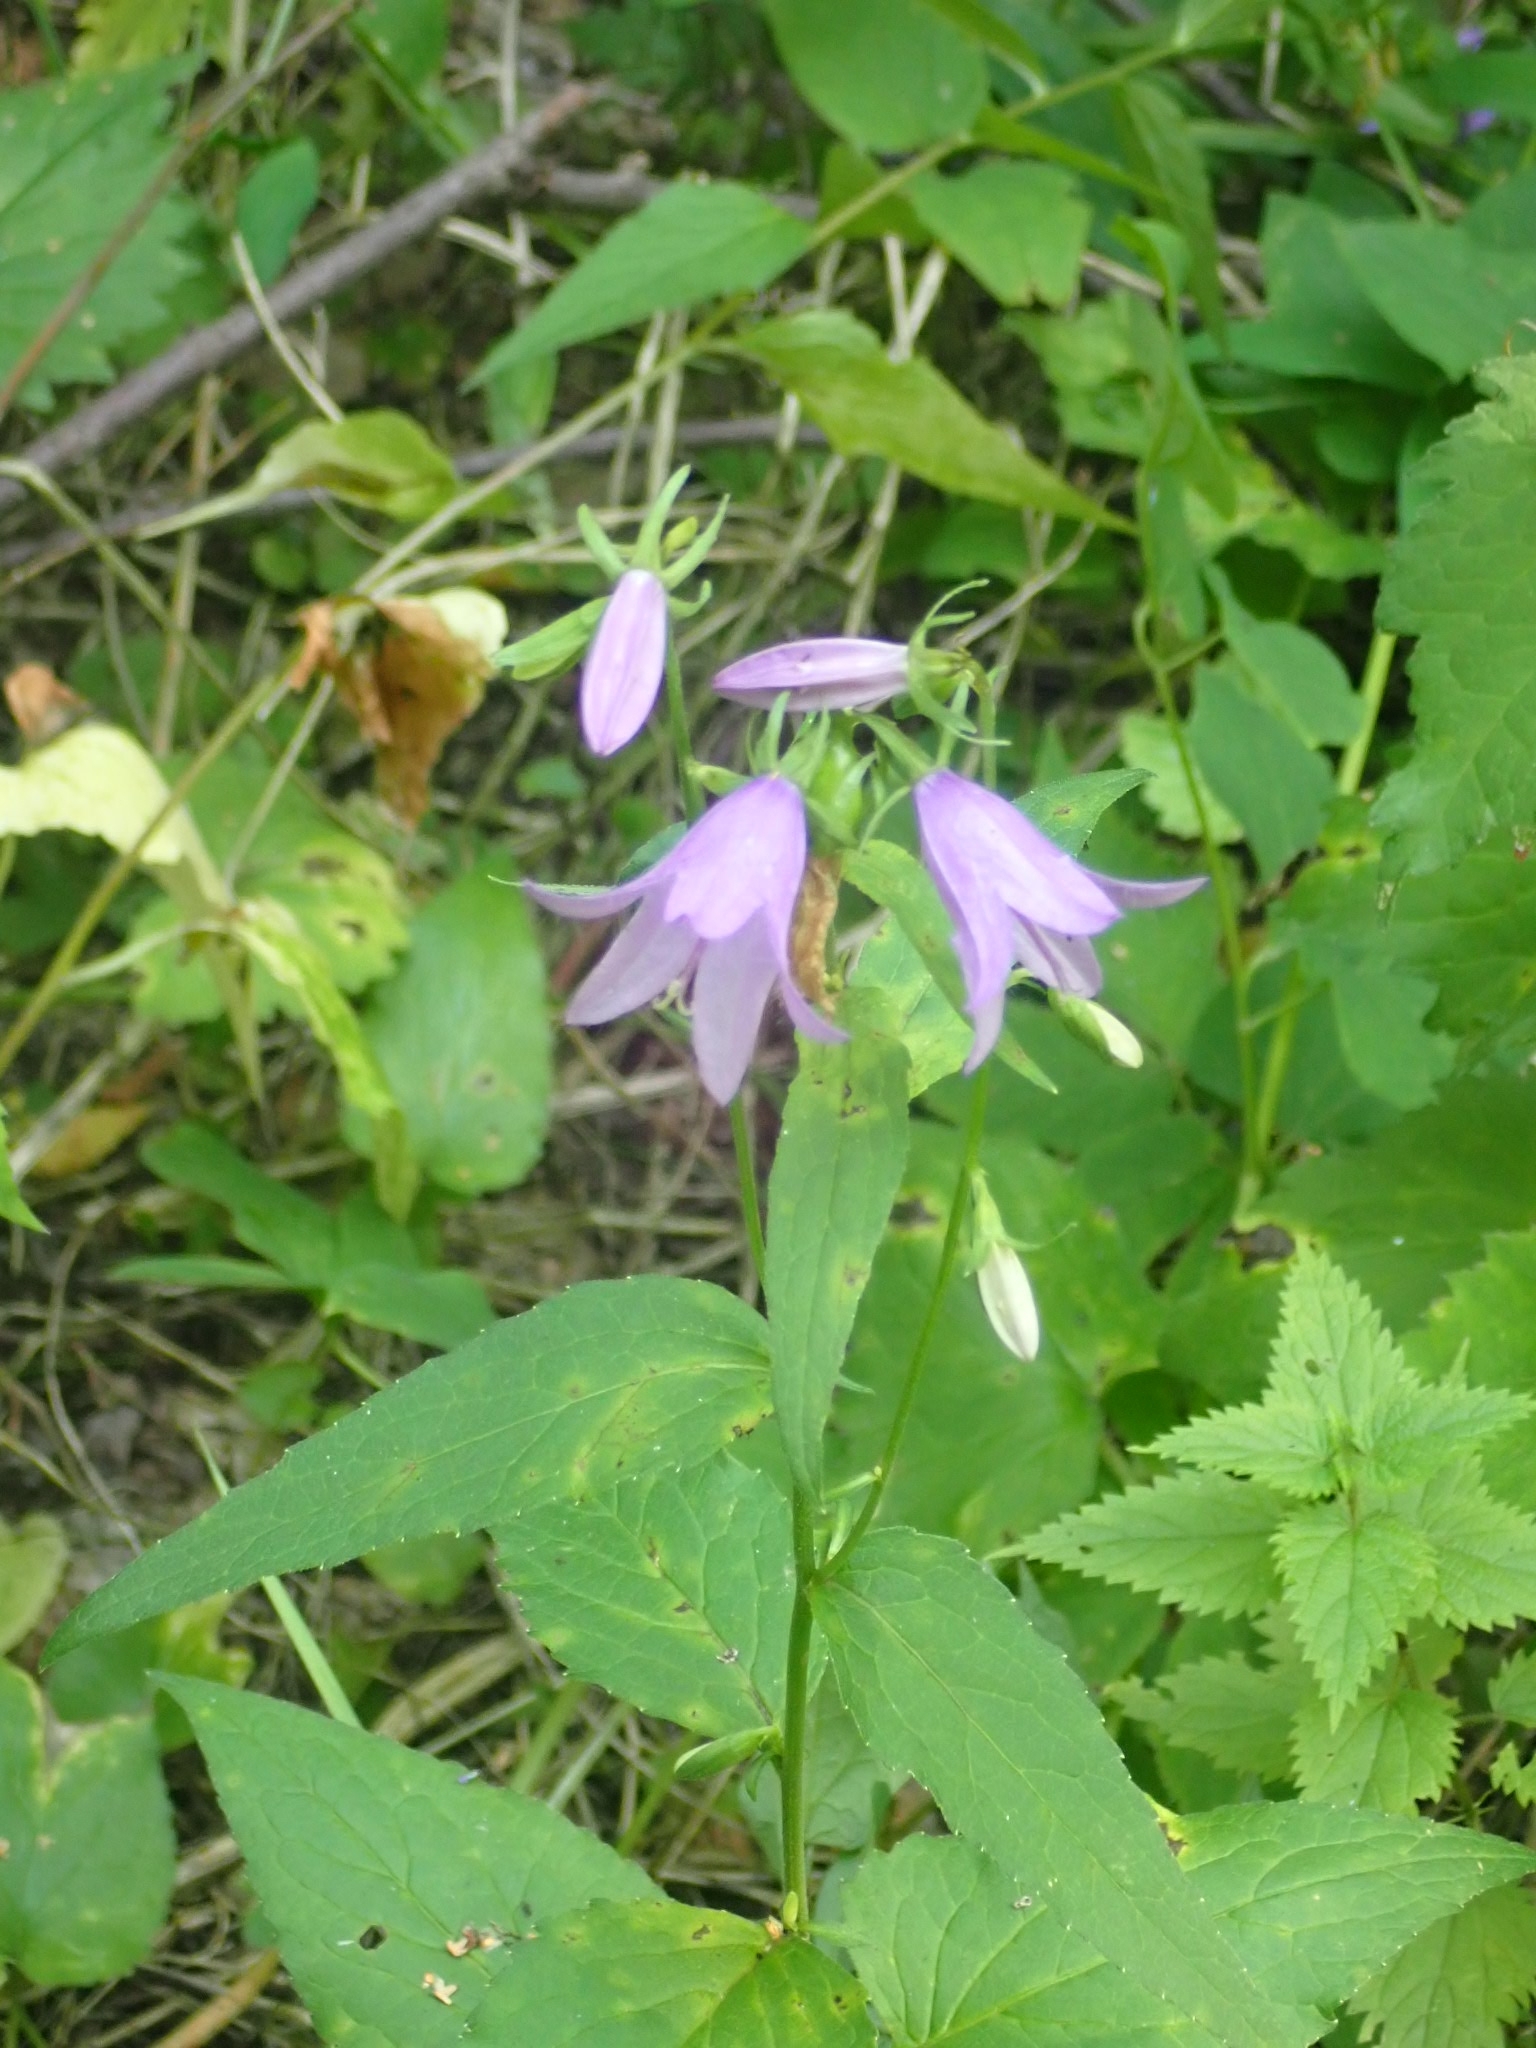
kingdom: Plantae
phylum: Tracheophyta
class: Magnoliopsida
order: Asterales
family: Campanulaceae
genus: Campanula
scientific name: Campanula rapunculoides
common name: Creeping bellflower
